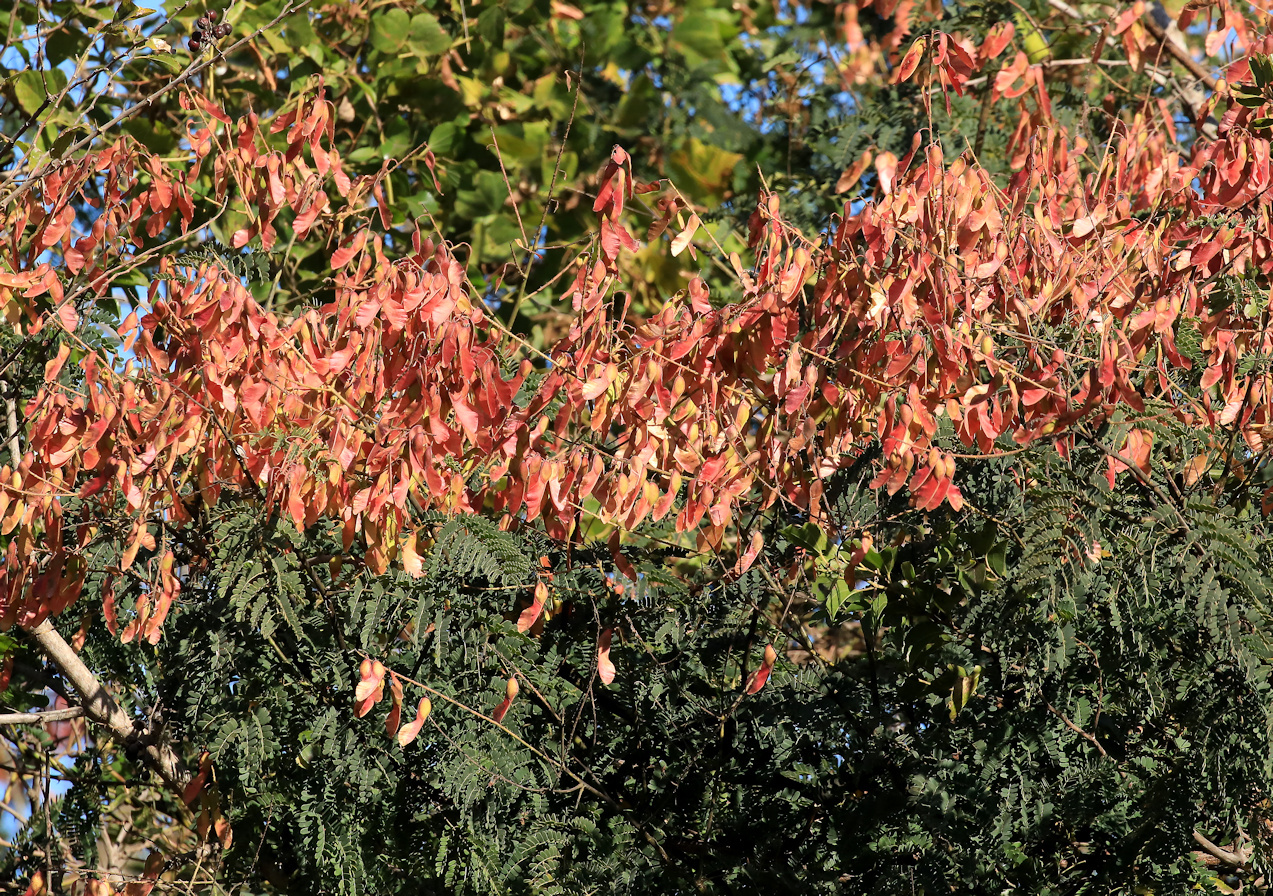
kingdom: Plantae
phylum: Tracheophyta
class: Magnoliopsida
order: Fabales
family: Fabaceae
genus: Pterolobium
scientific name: Pterolobium stellatum
